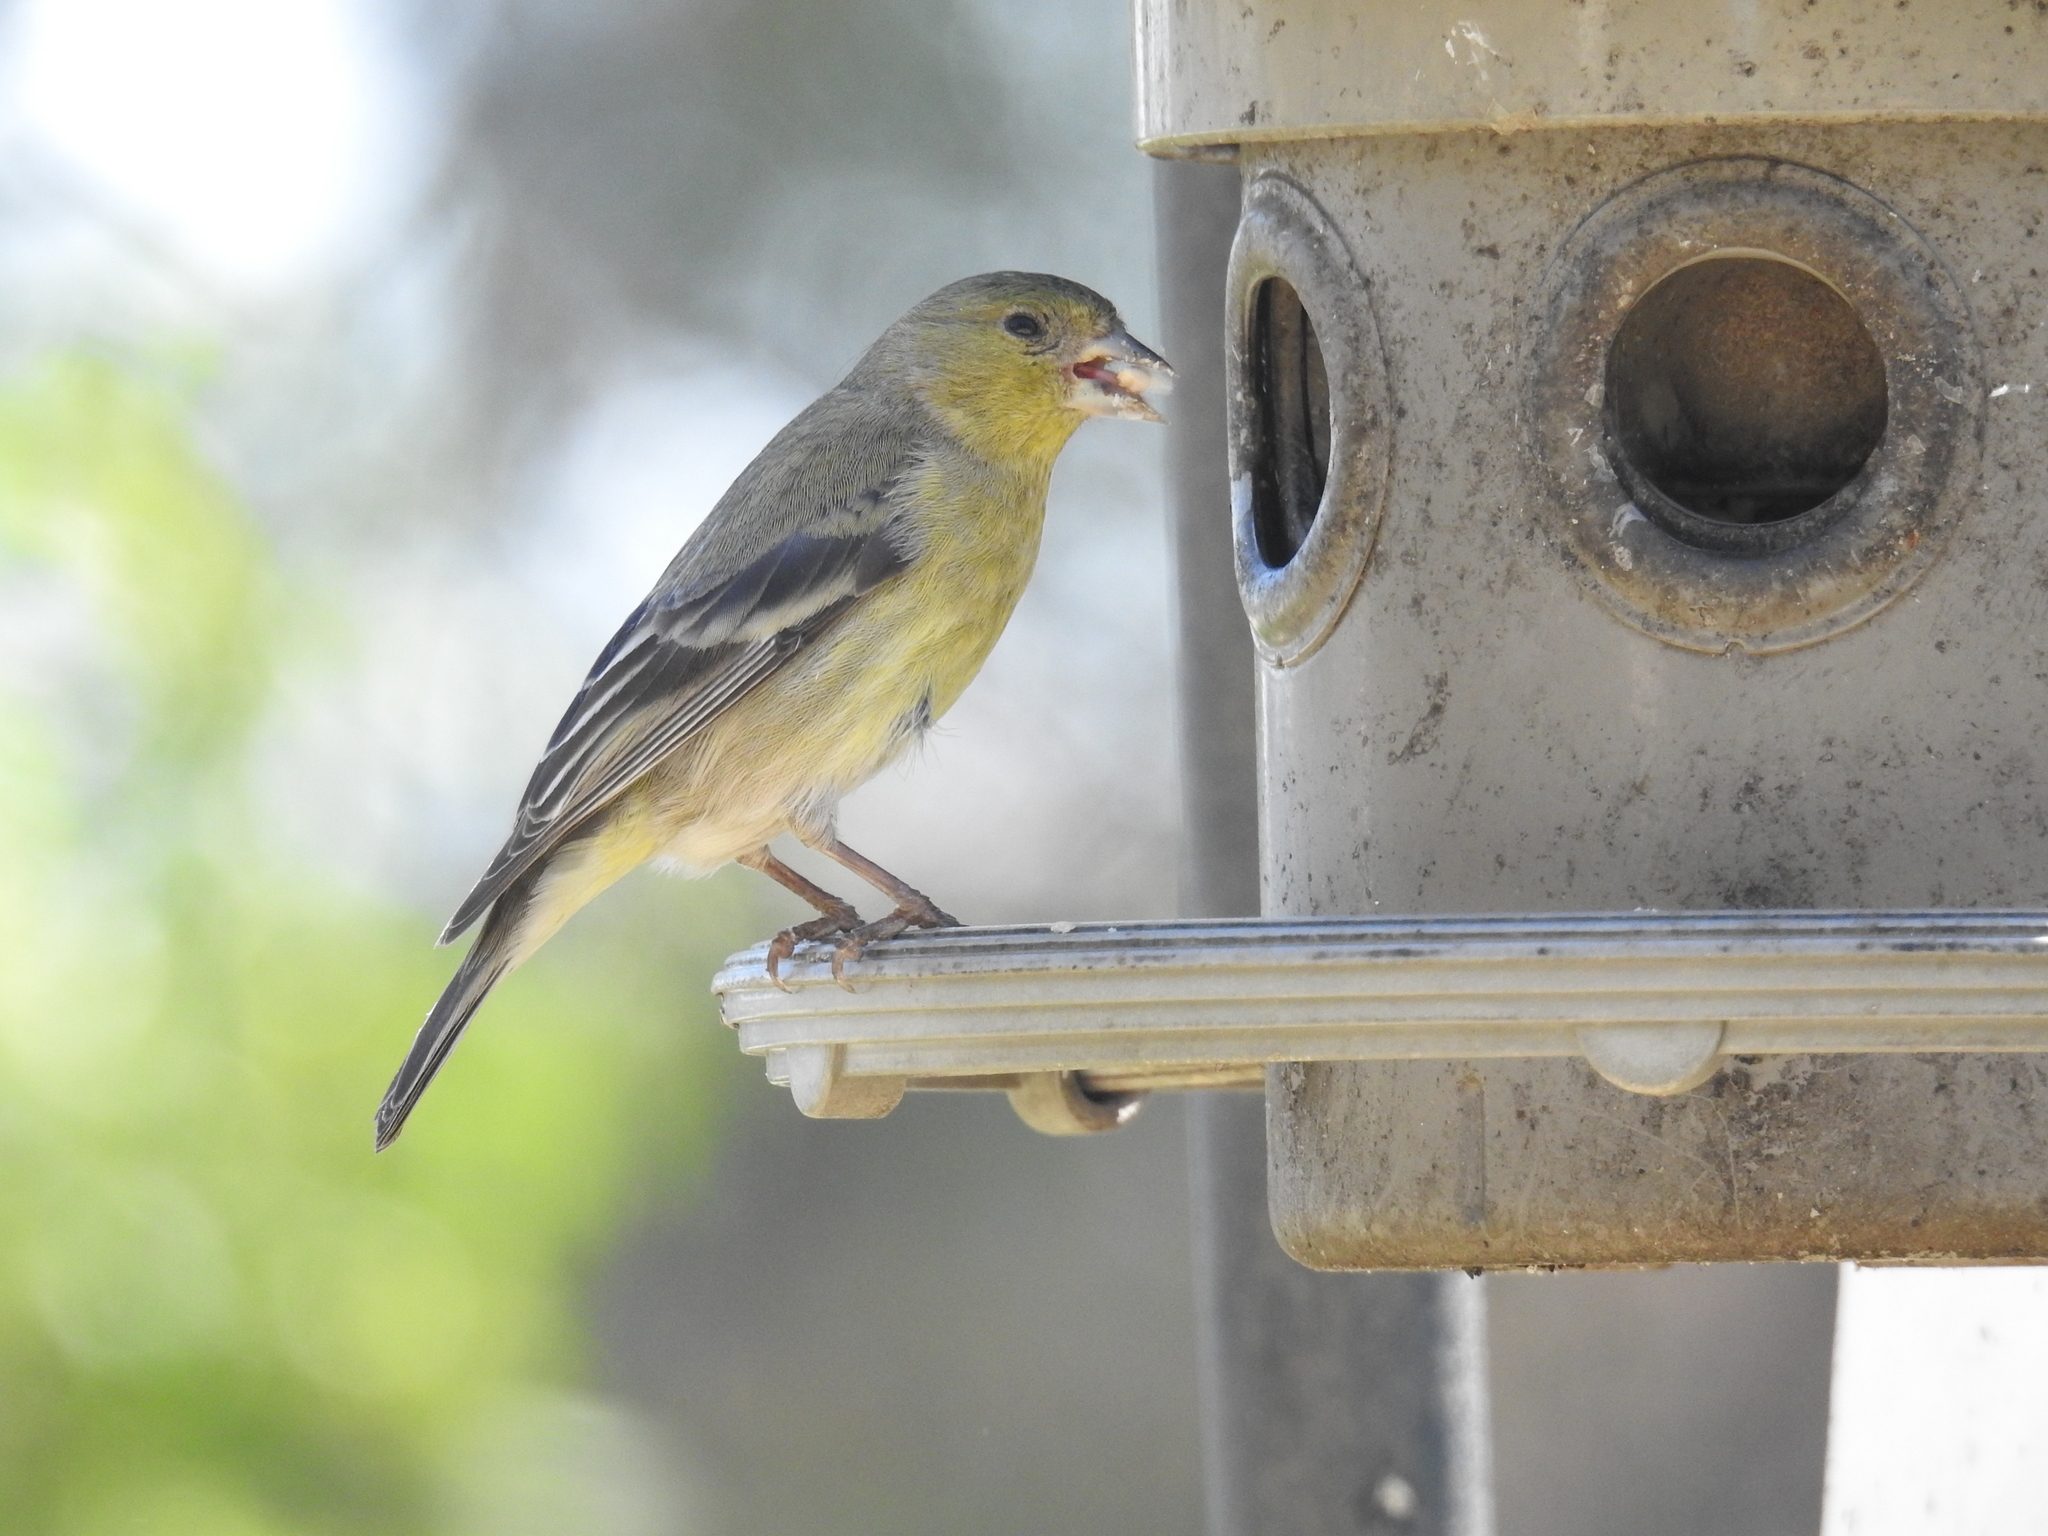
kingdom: Animalia
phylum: Chordata
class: Aves
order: Passeriformes
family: Fringillidae
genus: Spinus
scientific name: Spinus psaltria
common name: Lesser goldfinch
